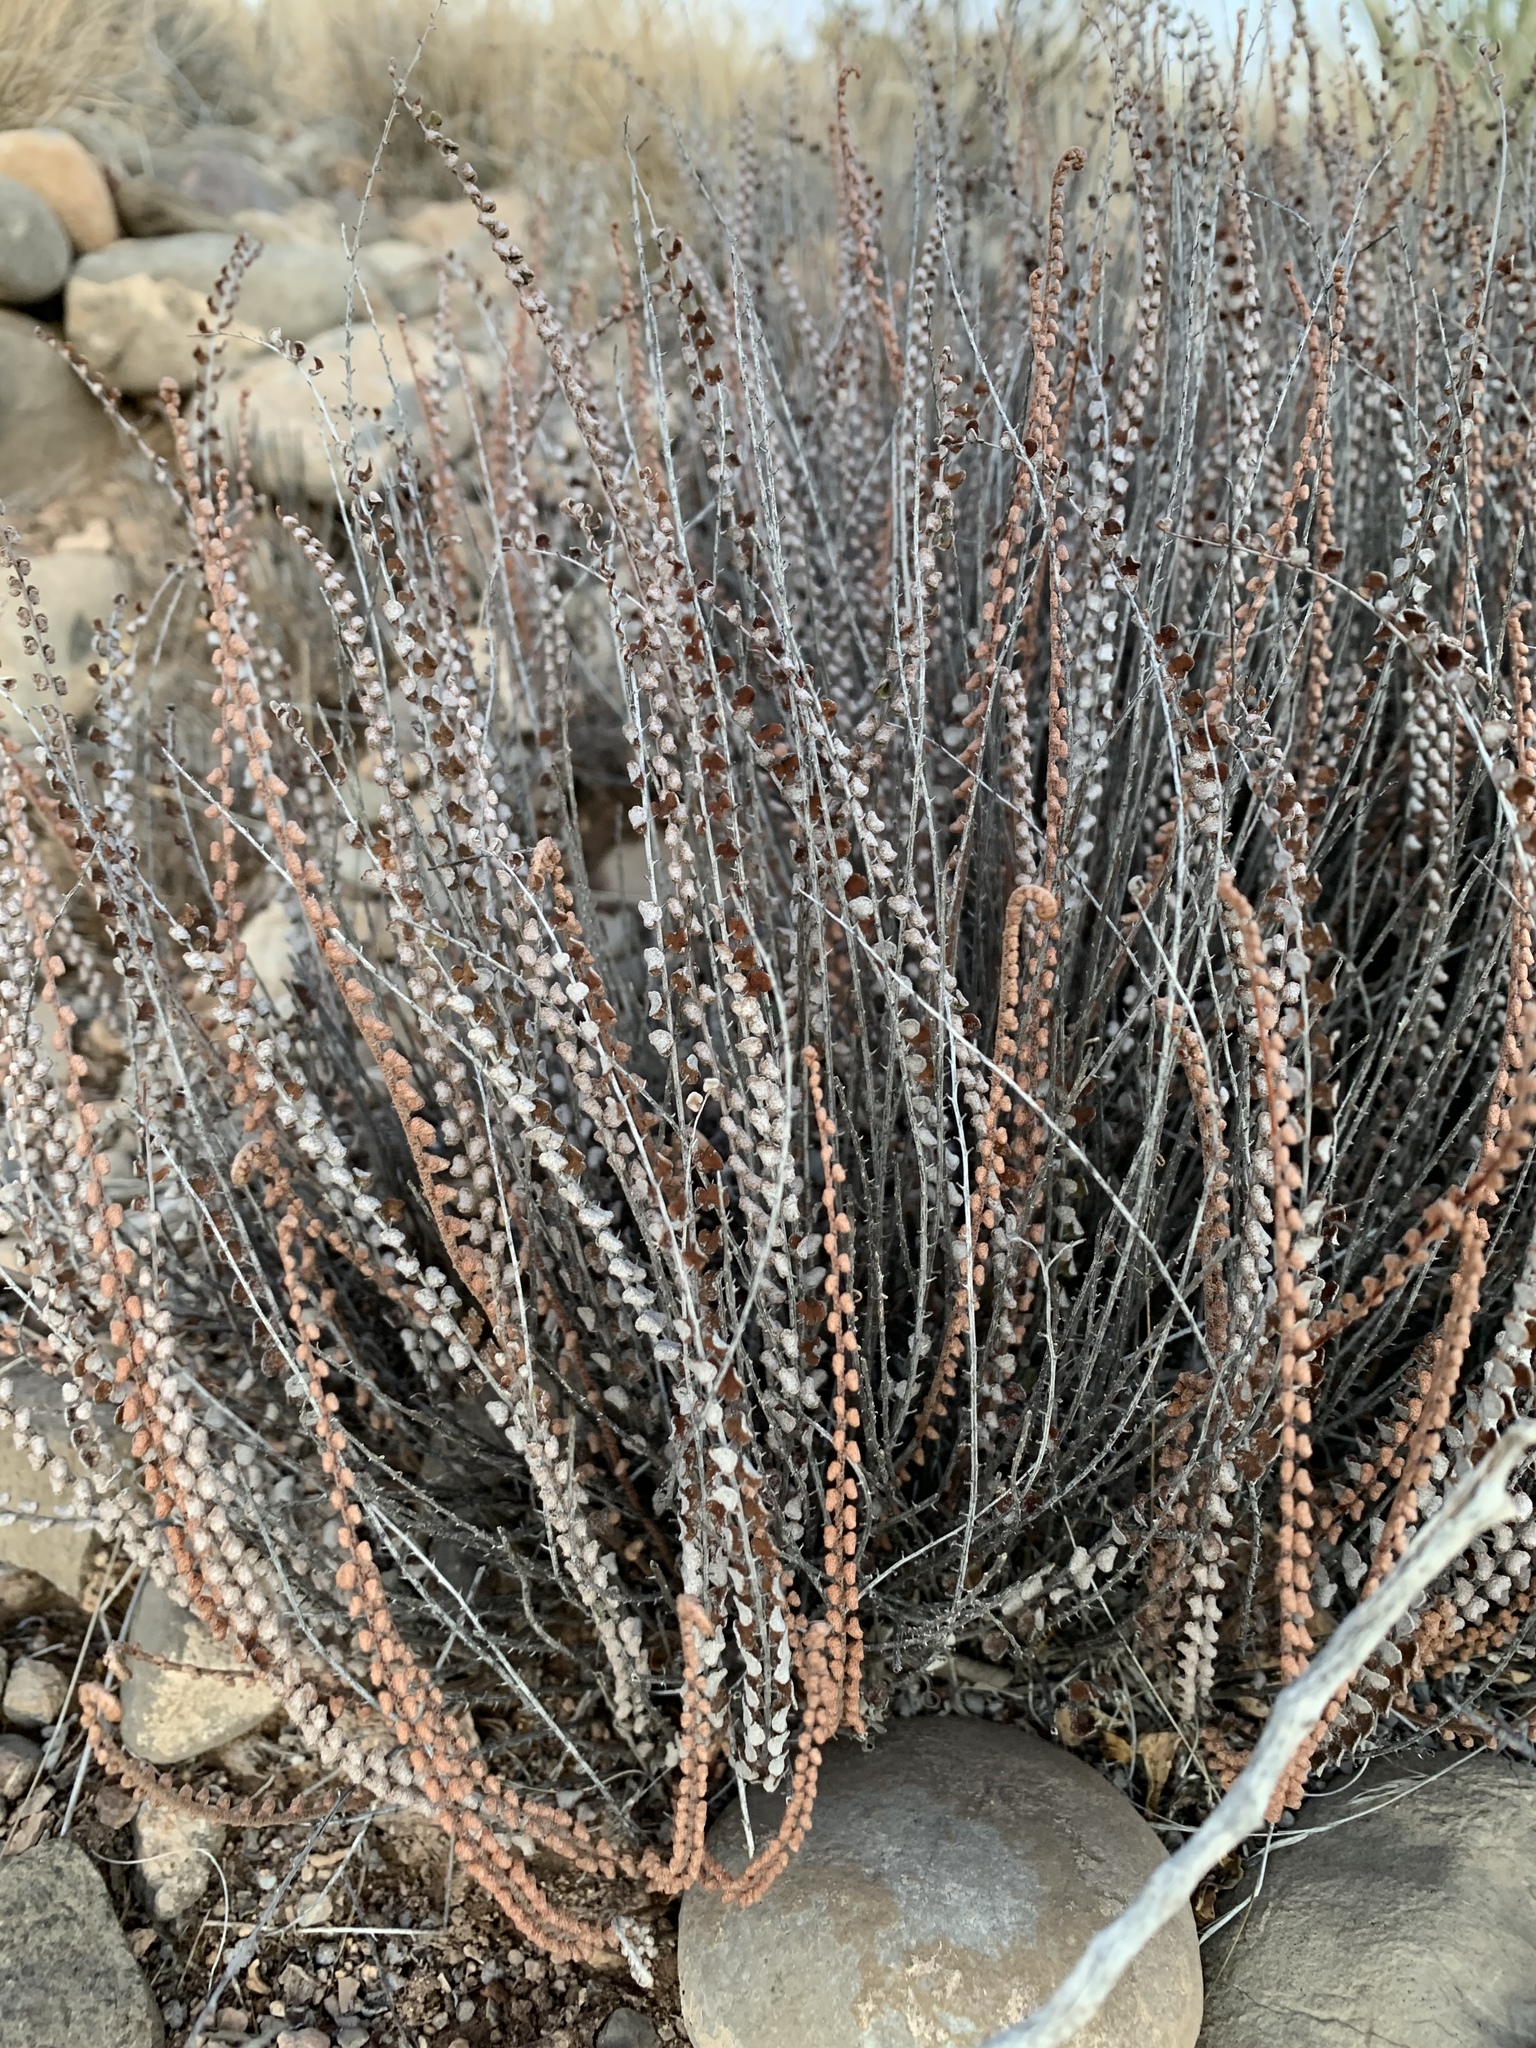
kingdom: Plantae
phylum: Tracheophyta
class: Polypodiopsida
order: Polypodiales
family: Pteridaceae
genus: Astrolepis
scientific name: Astrolepis cochisensis
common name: Scaly cloak fern
